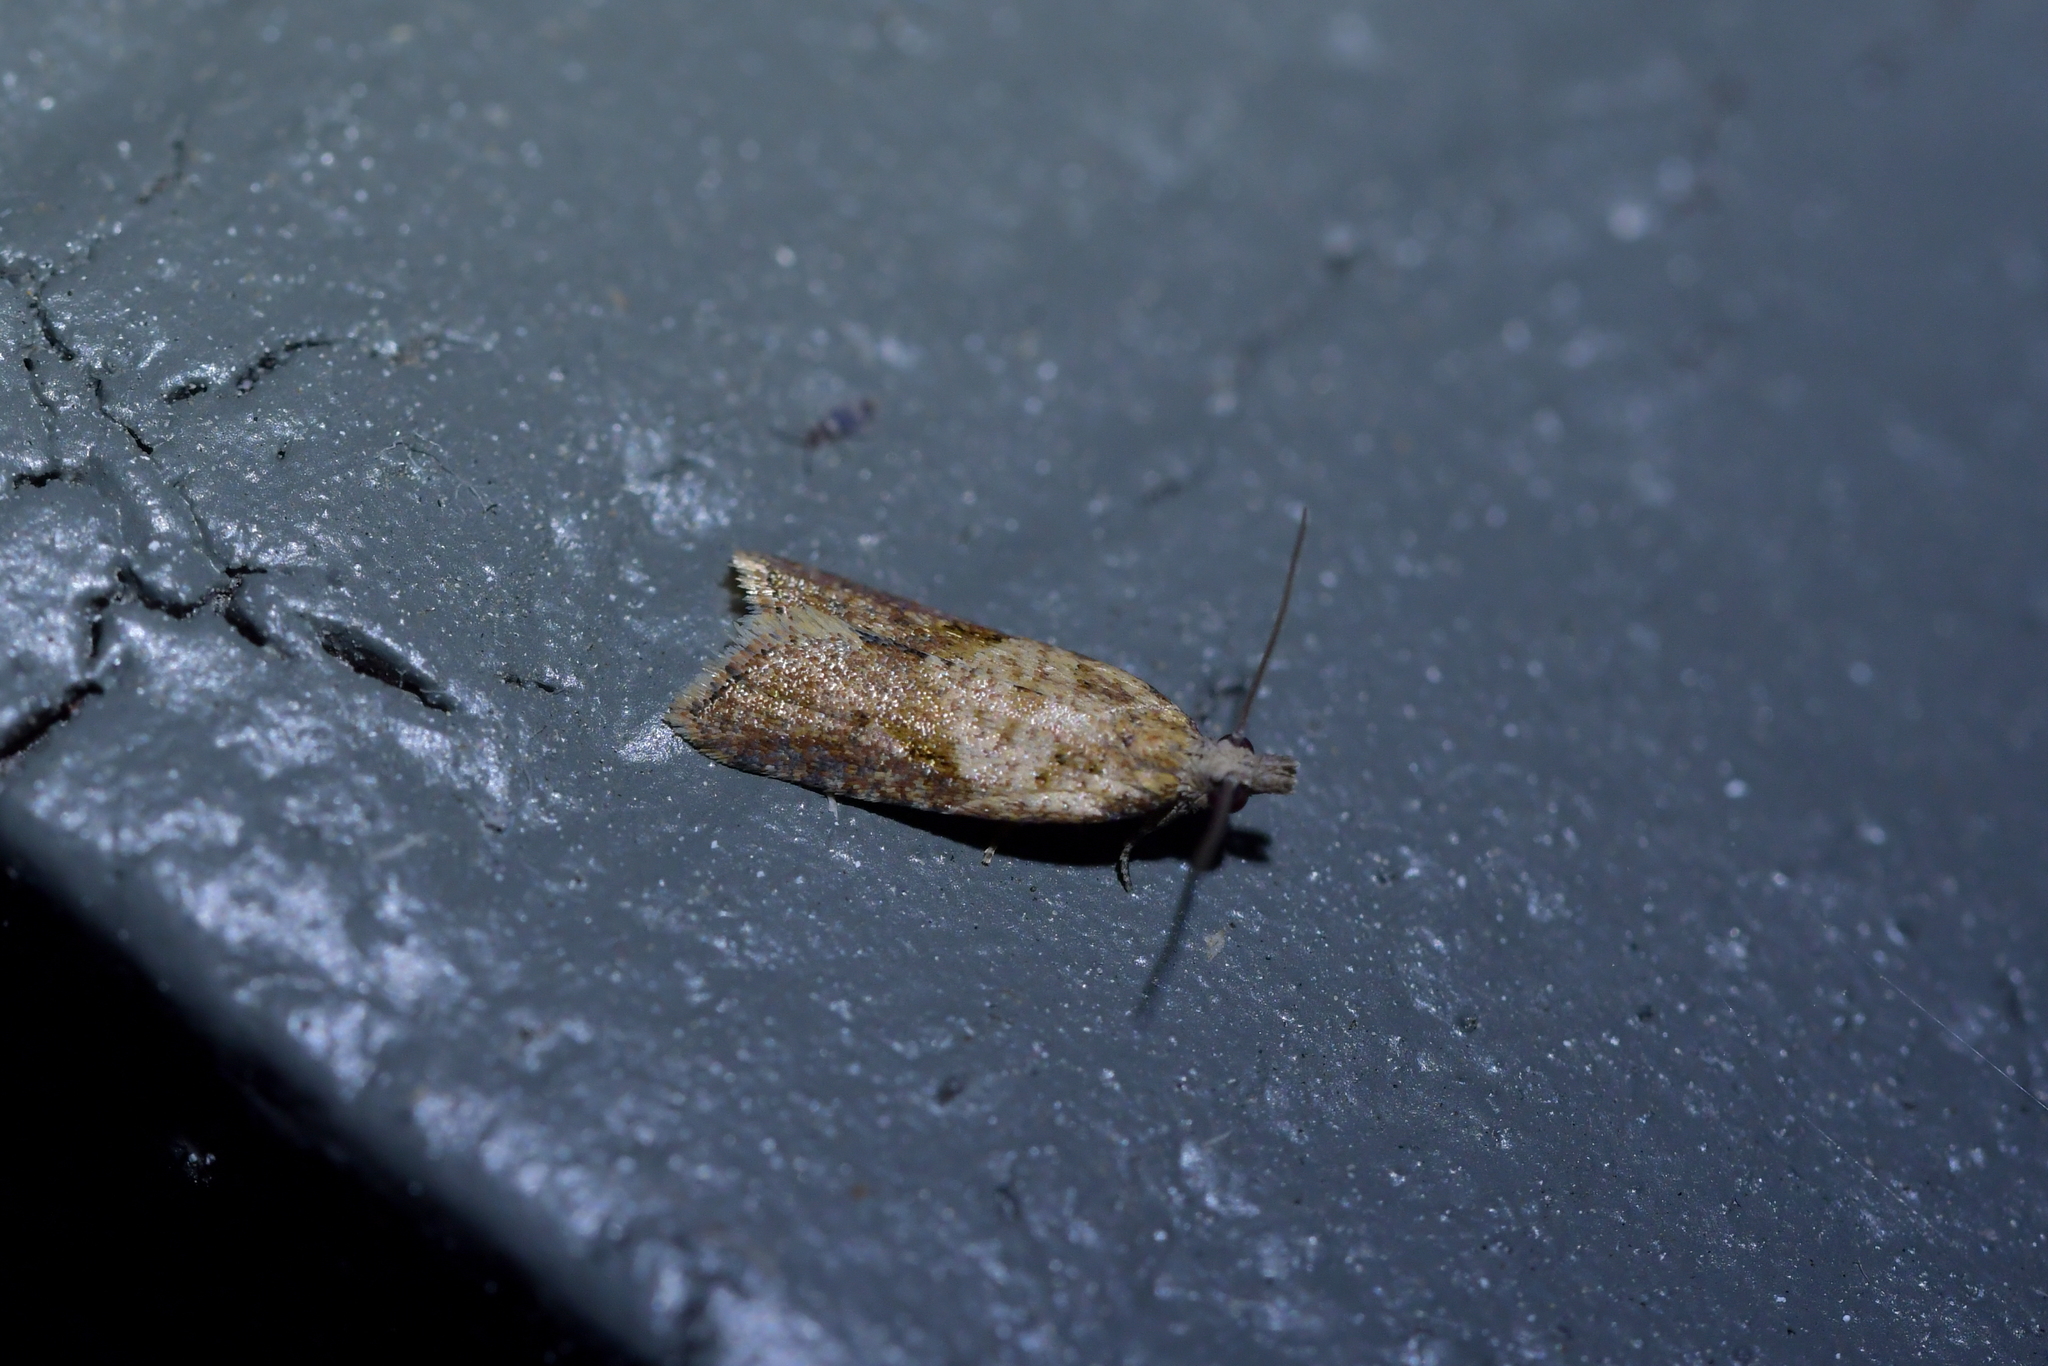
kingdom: Animalia
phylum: Arthropoda
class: Insecta
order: Lepidoptera
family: Tortricidae
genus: Epiphyas
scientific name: Epiphyas postvittana
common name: Light brown apple moth
